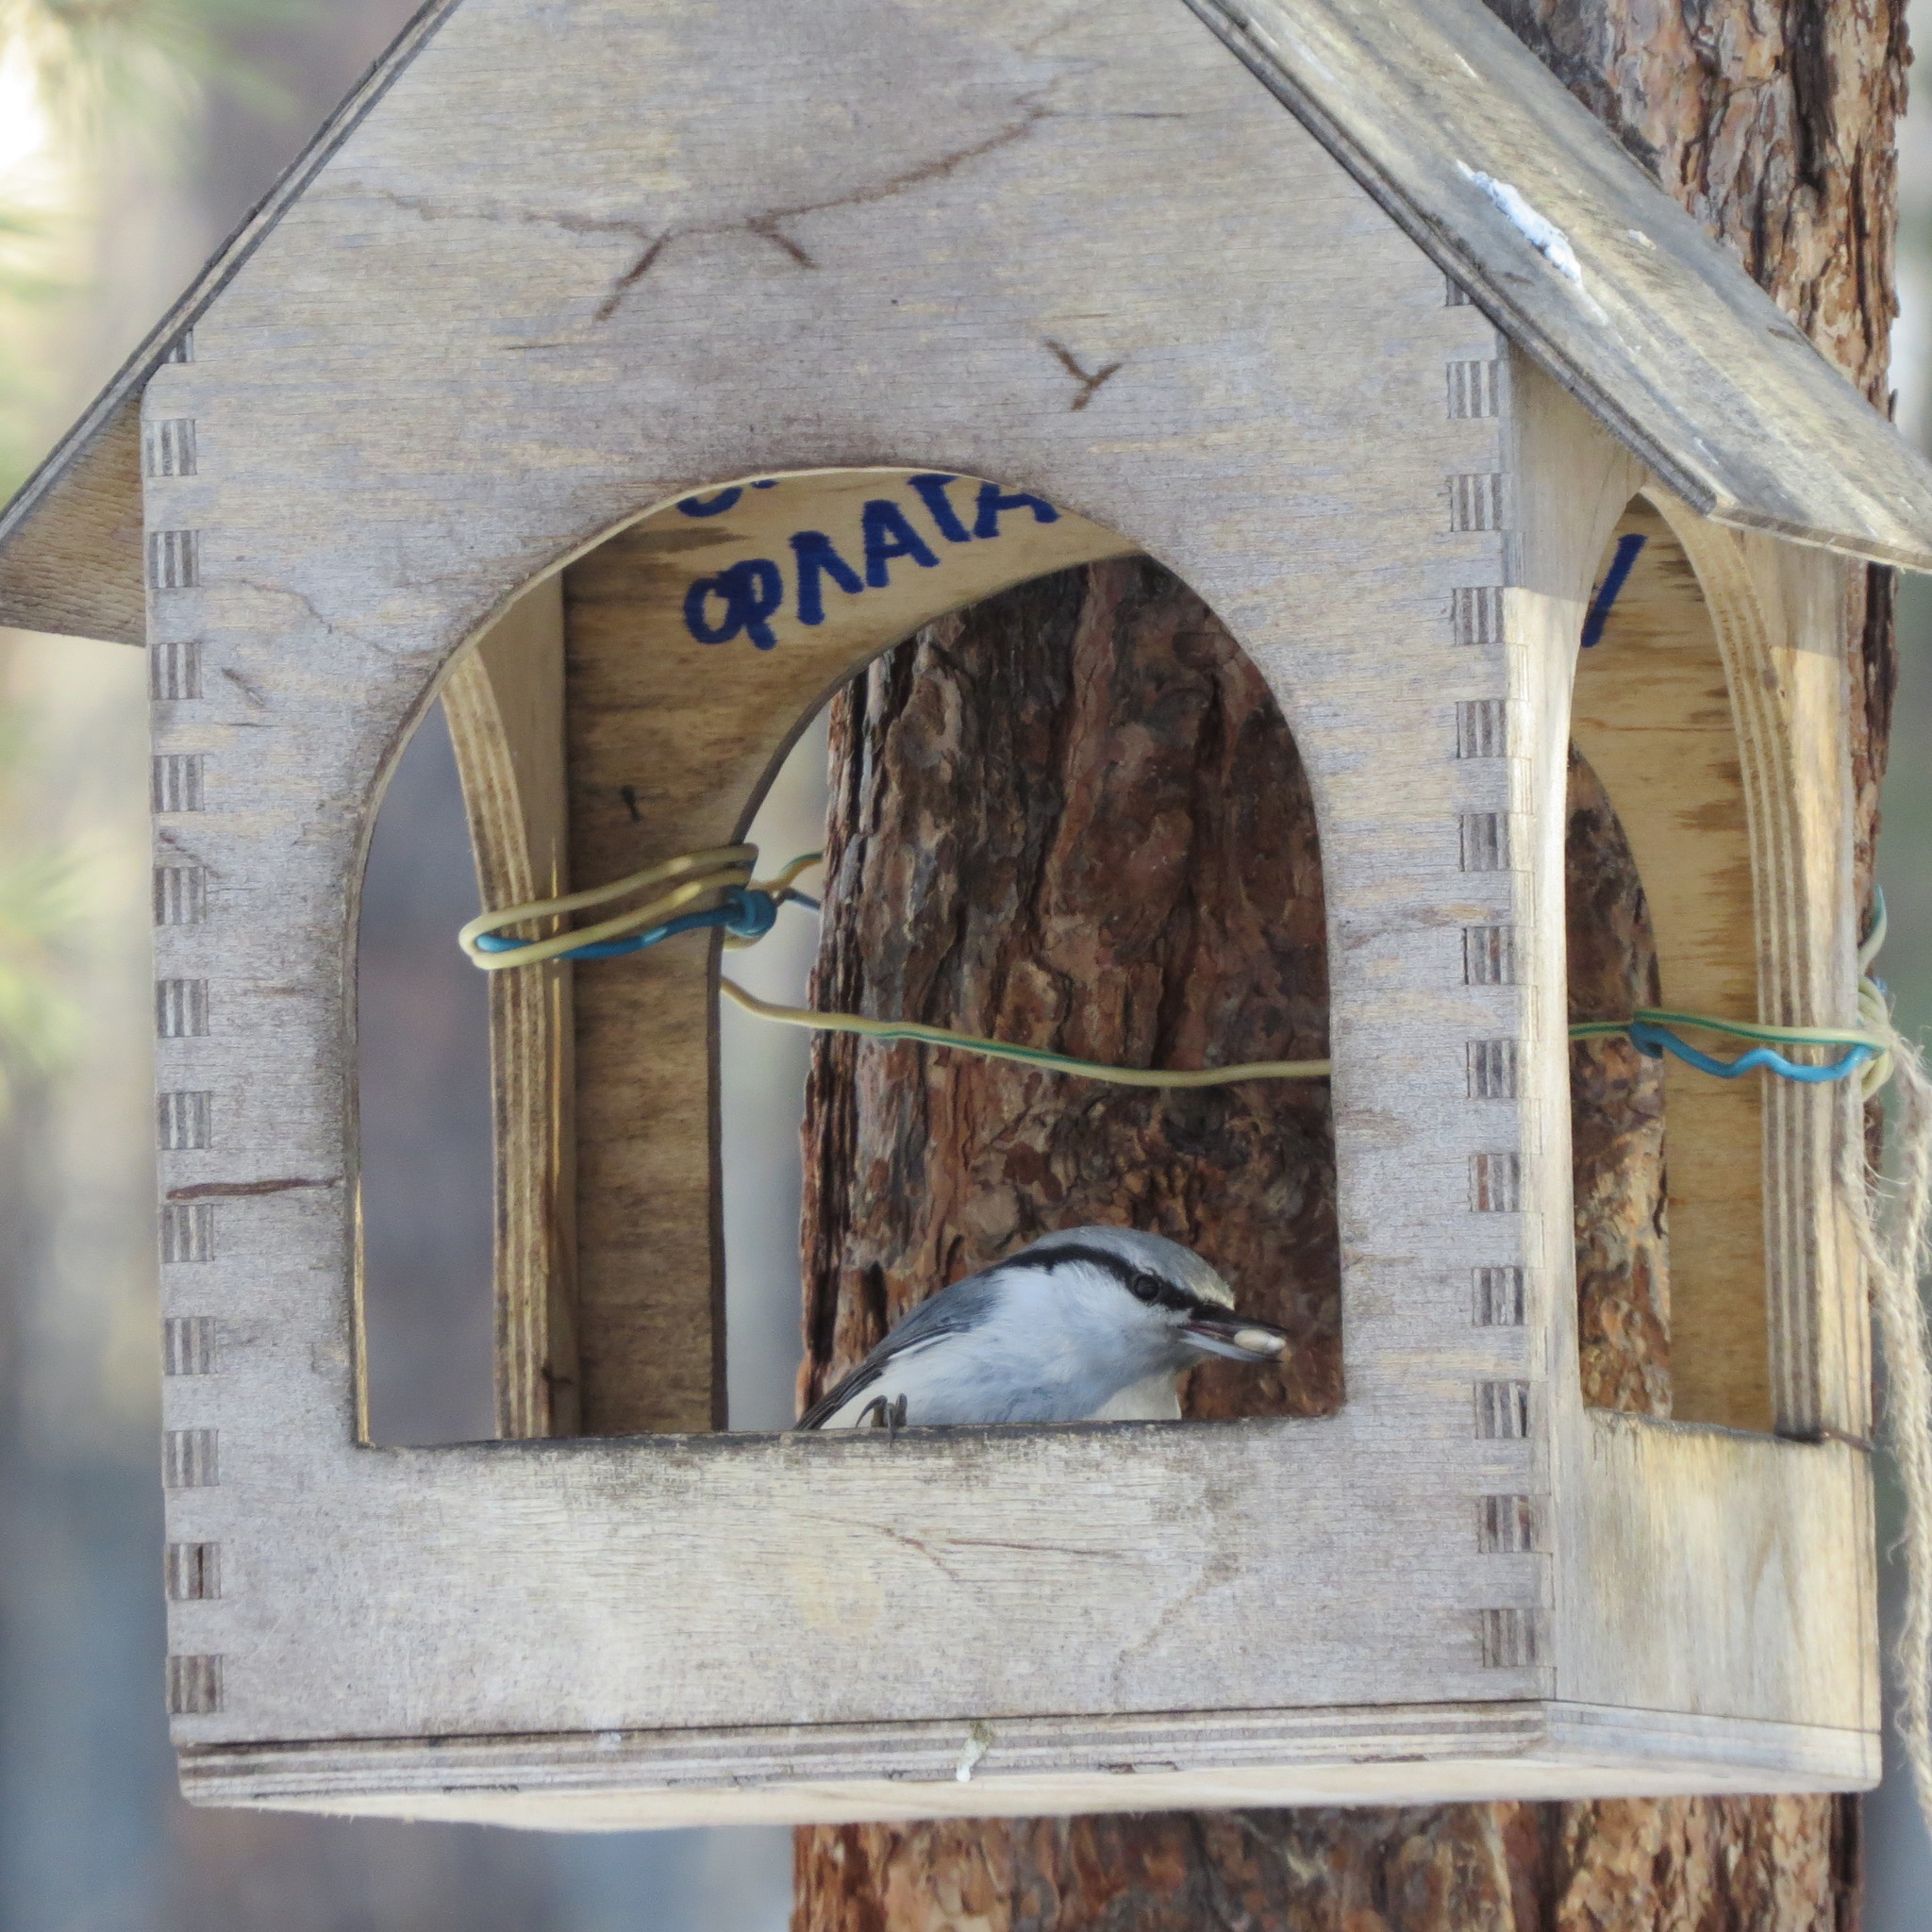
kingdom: Animalia
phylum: Chordata
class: Aves
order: Passeriformes
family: Sittidae
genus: Sitta
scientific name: Sitta europaea
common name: Eurasian nuthatch
